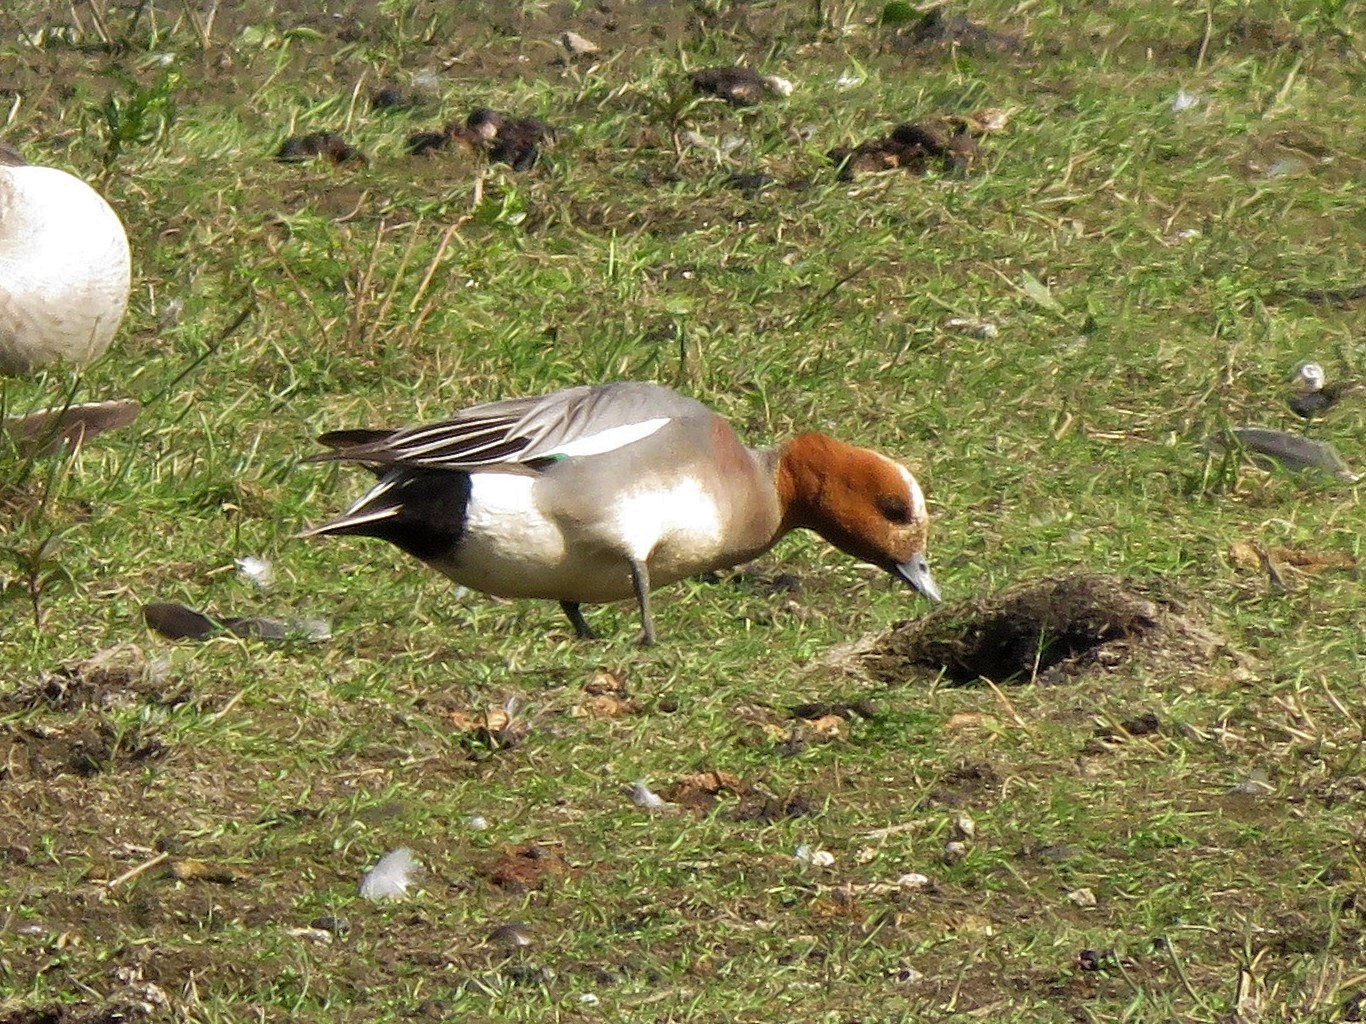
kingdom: Animalia
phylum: Chordata
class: Aves
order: Anseriformes
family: Anatidae
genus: Mareca
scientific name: Mareca penelope
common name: Eurasian wigeon
